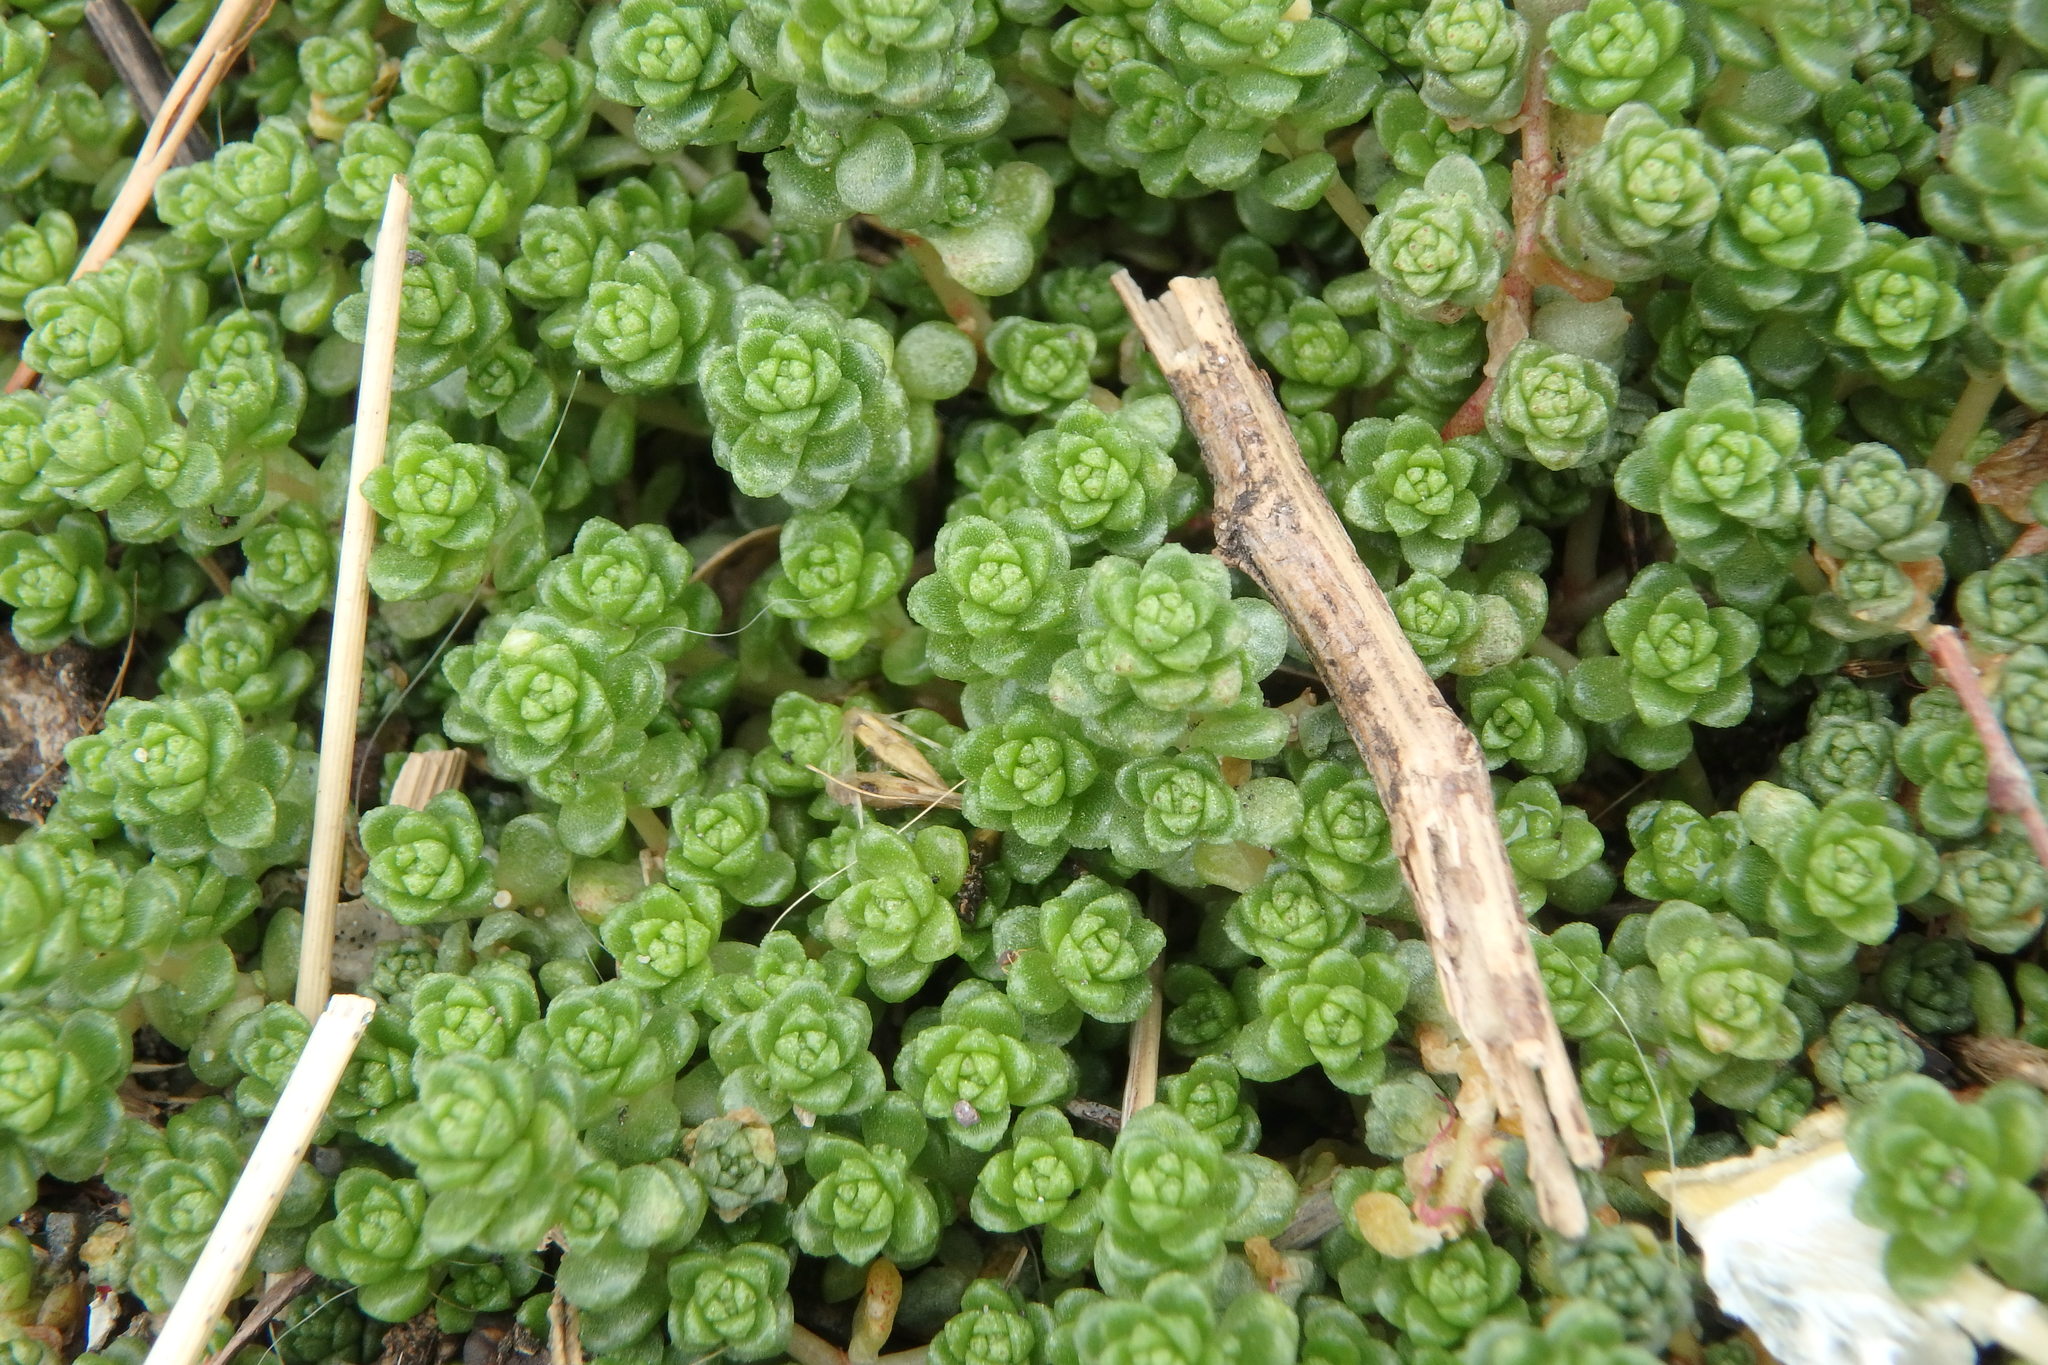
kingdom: Plantae
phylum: Tracheophyta
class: Magnoliopsida
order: Saxifragales
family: Crassulaceae
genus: Sedum
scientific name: Sedum japonicum
